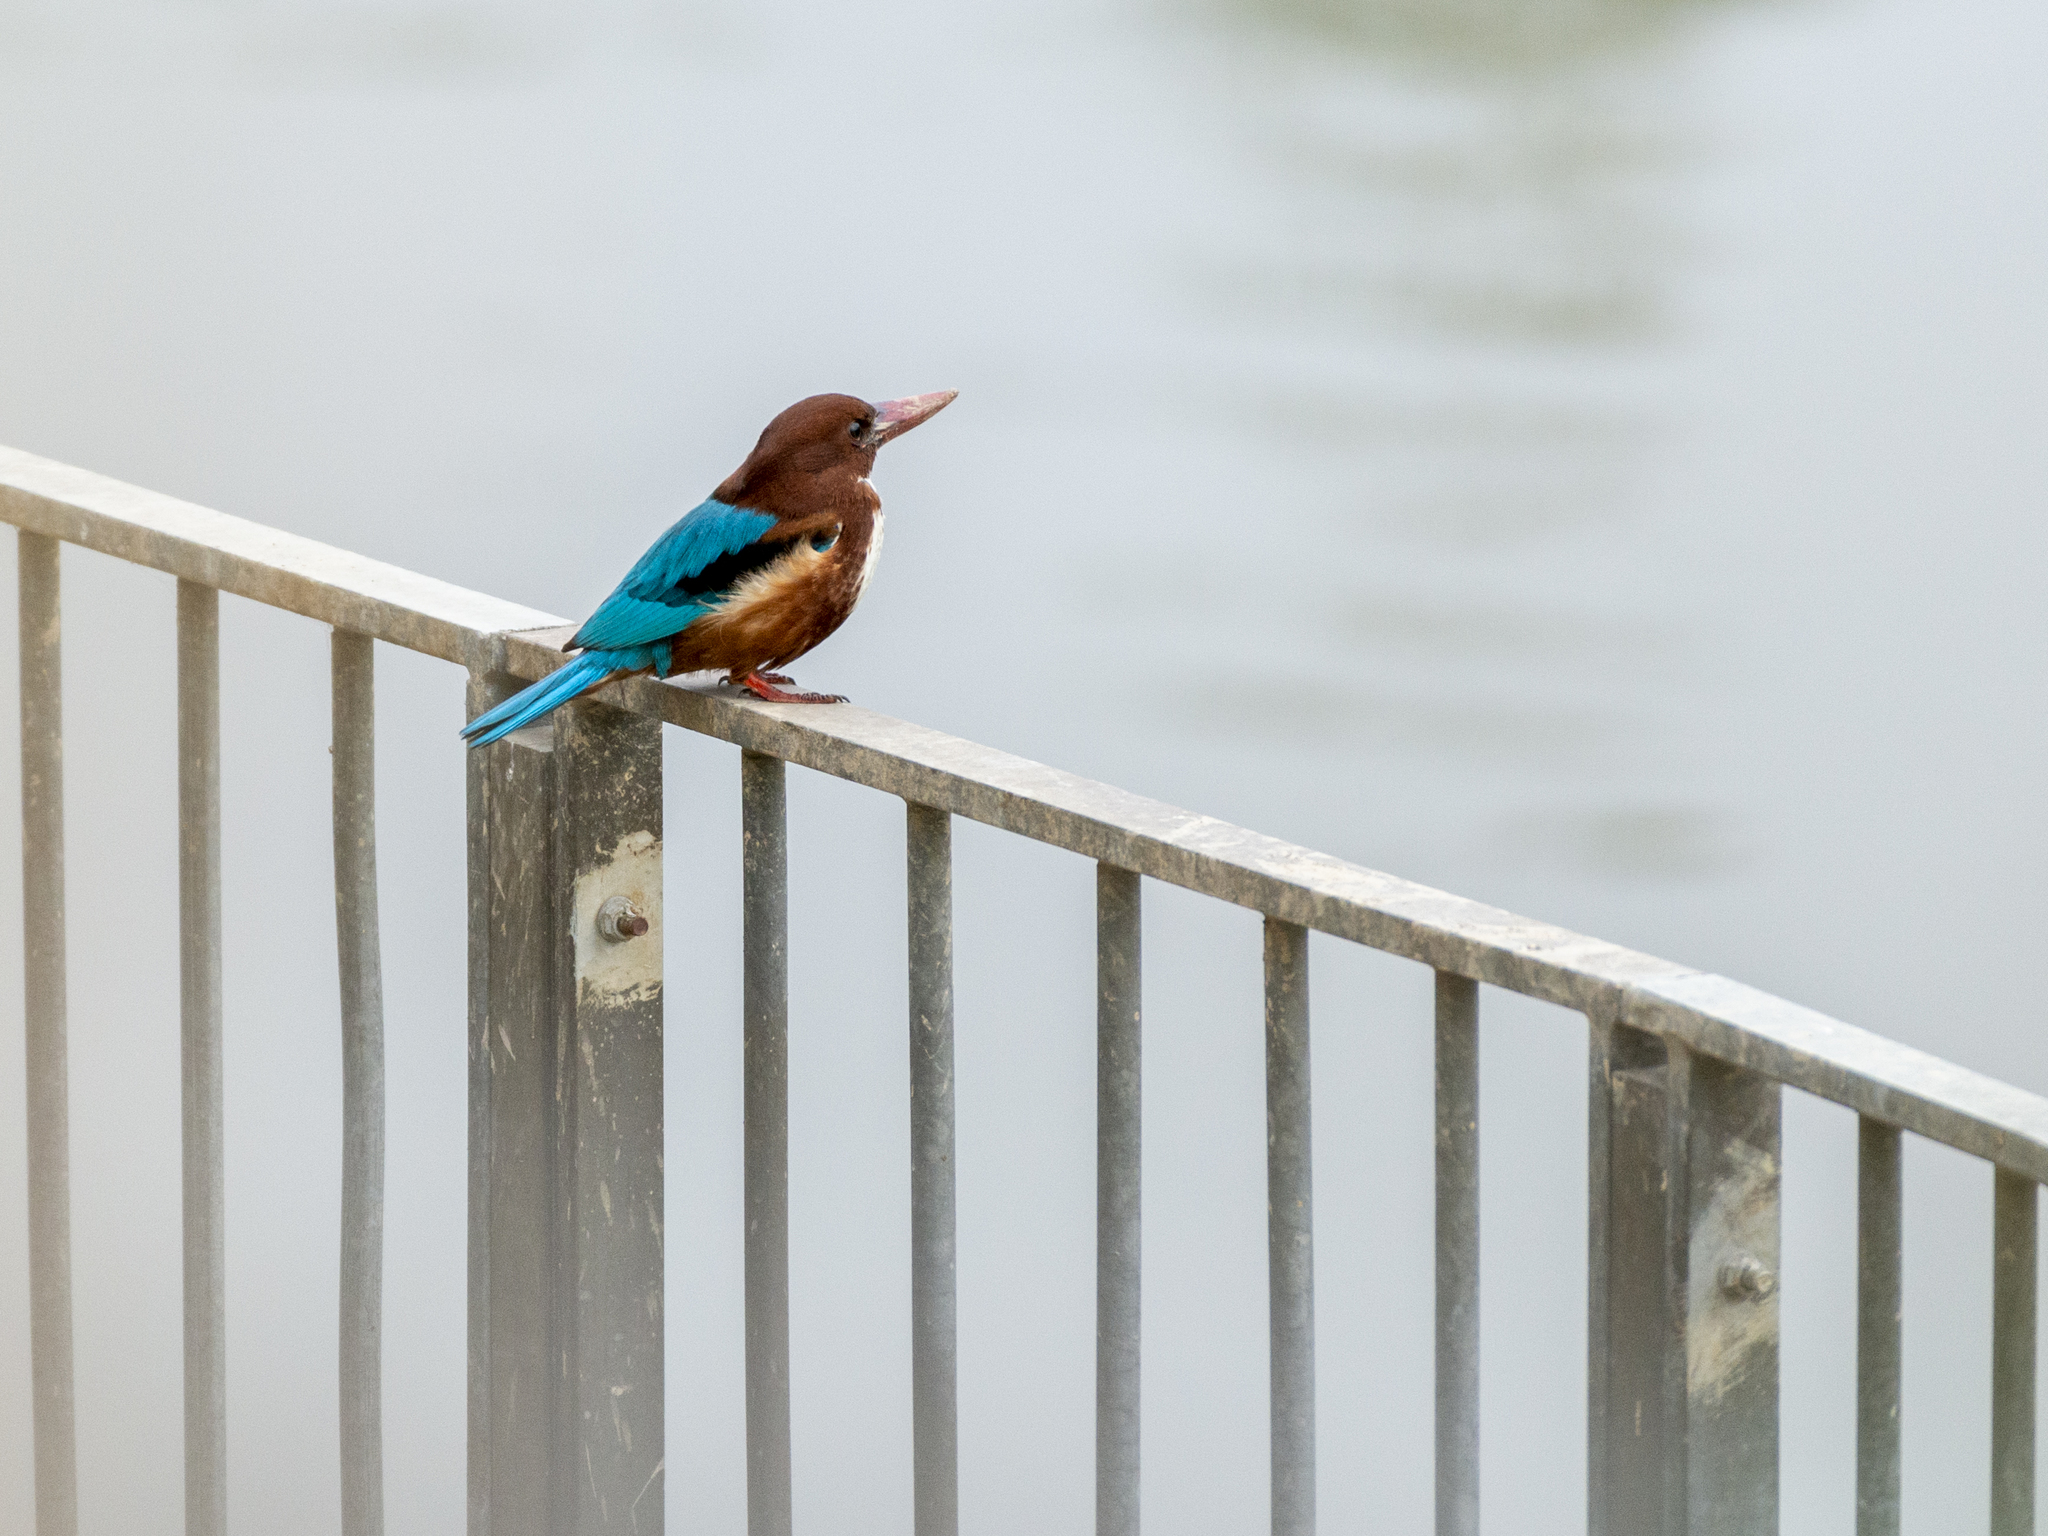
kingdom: Animalia
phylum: Chordata
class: Aves
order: Coraciiformes
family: Alcedinidae
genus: Halcyon
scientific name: Halcyon smyrnensis
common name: White-throated kingfisher
